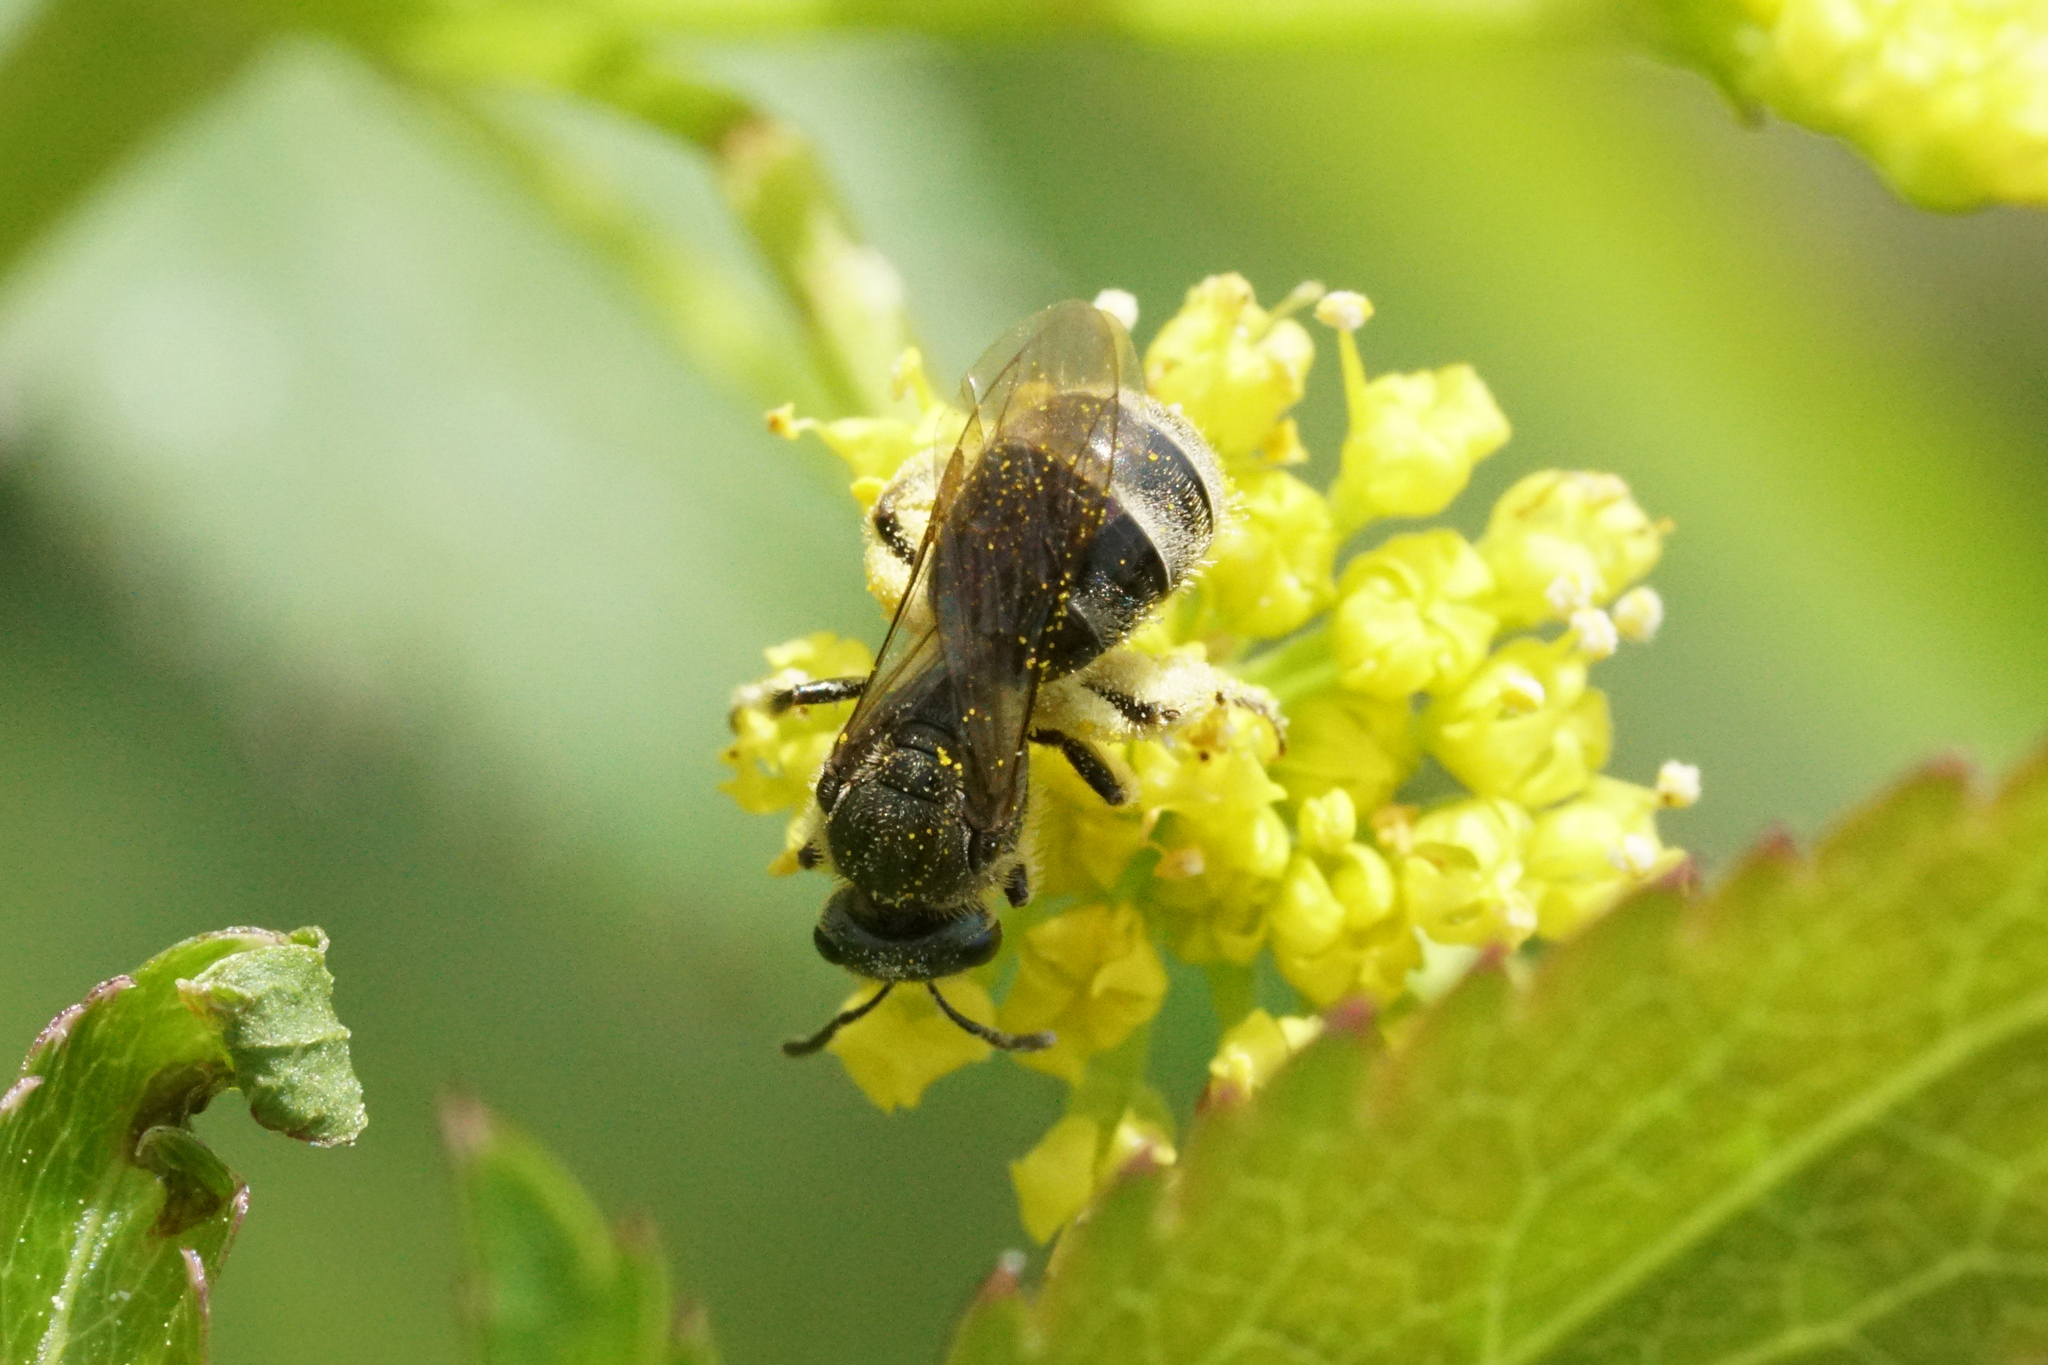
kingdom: Animalia
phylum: Arthropoda
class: Insecta
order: Hymenoptera
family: Halictidae
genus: Dialictus
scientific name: Dialictus
